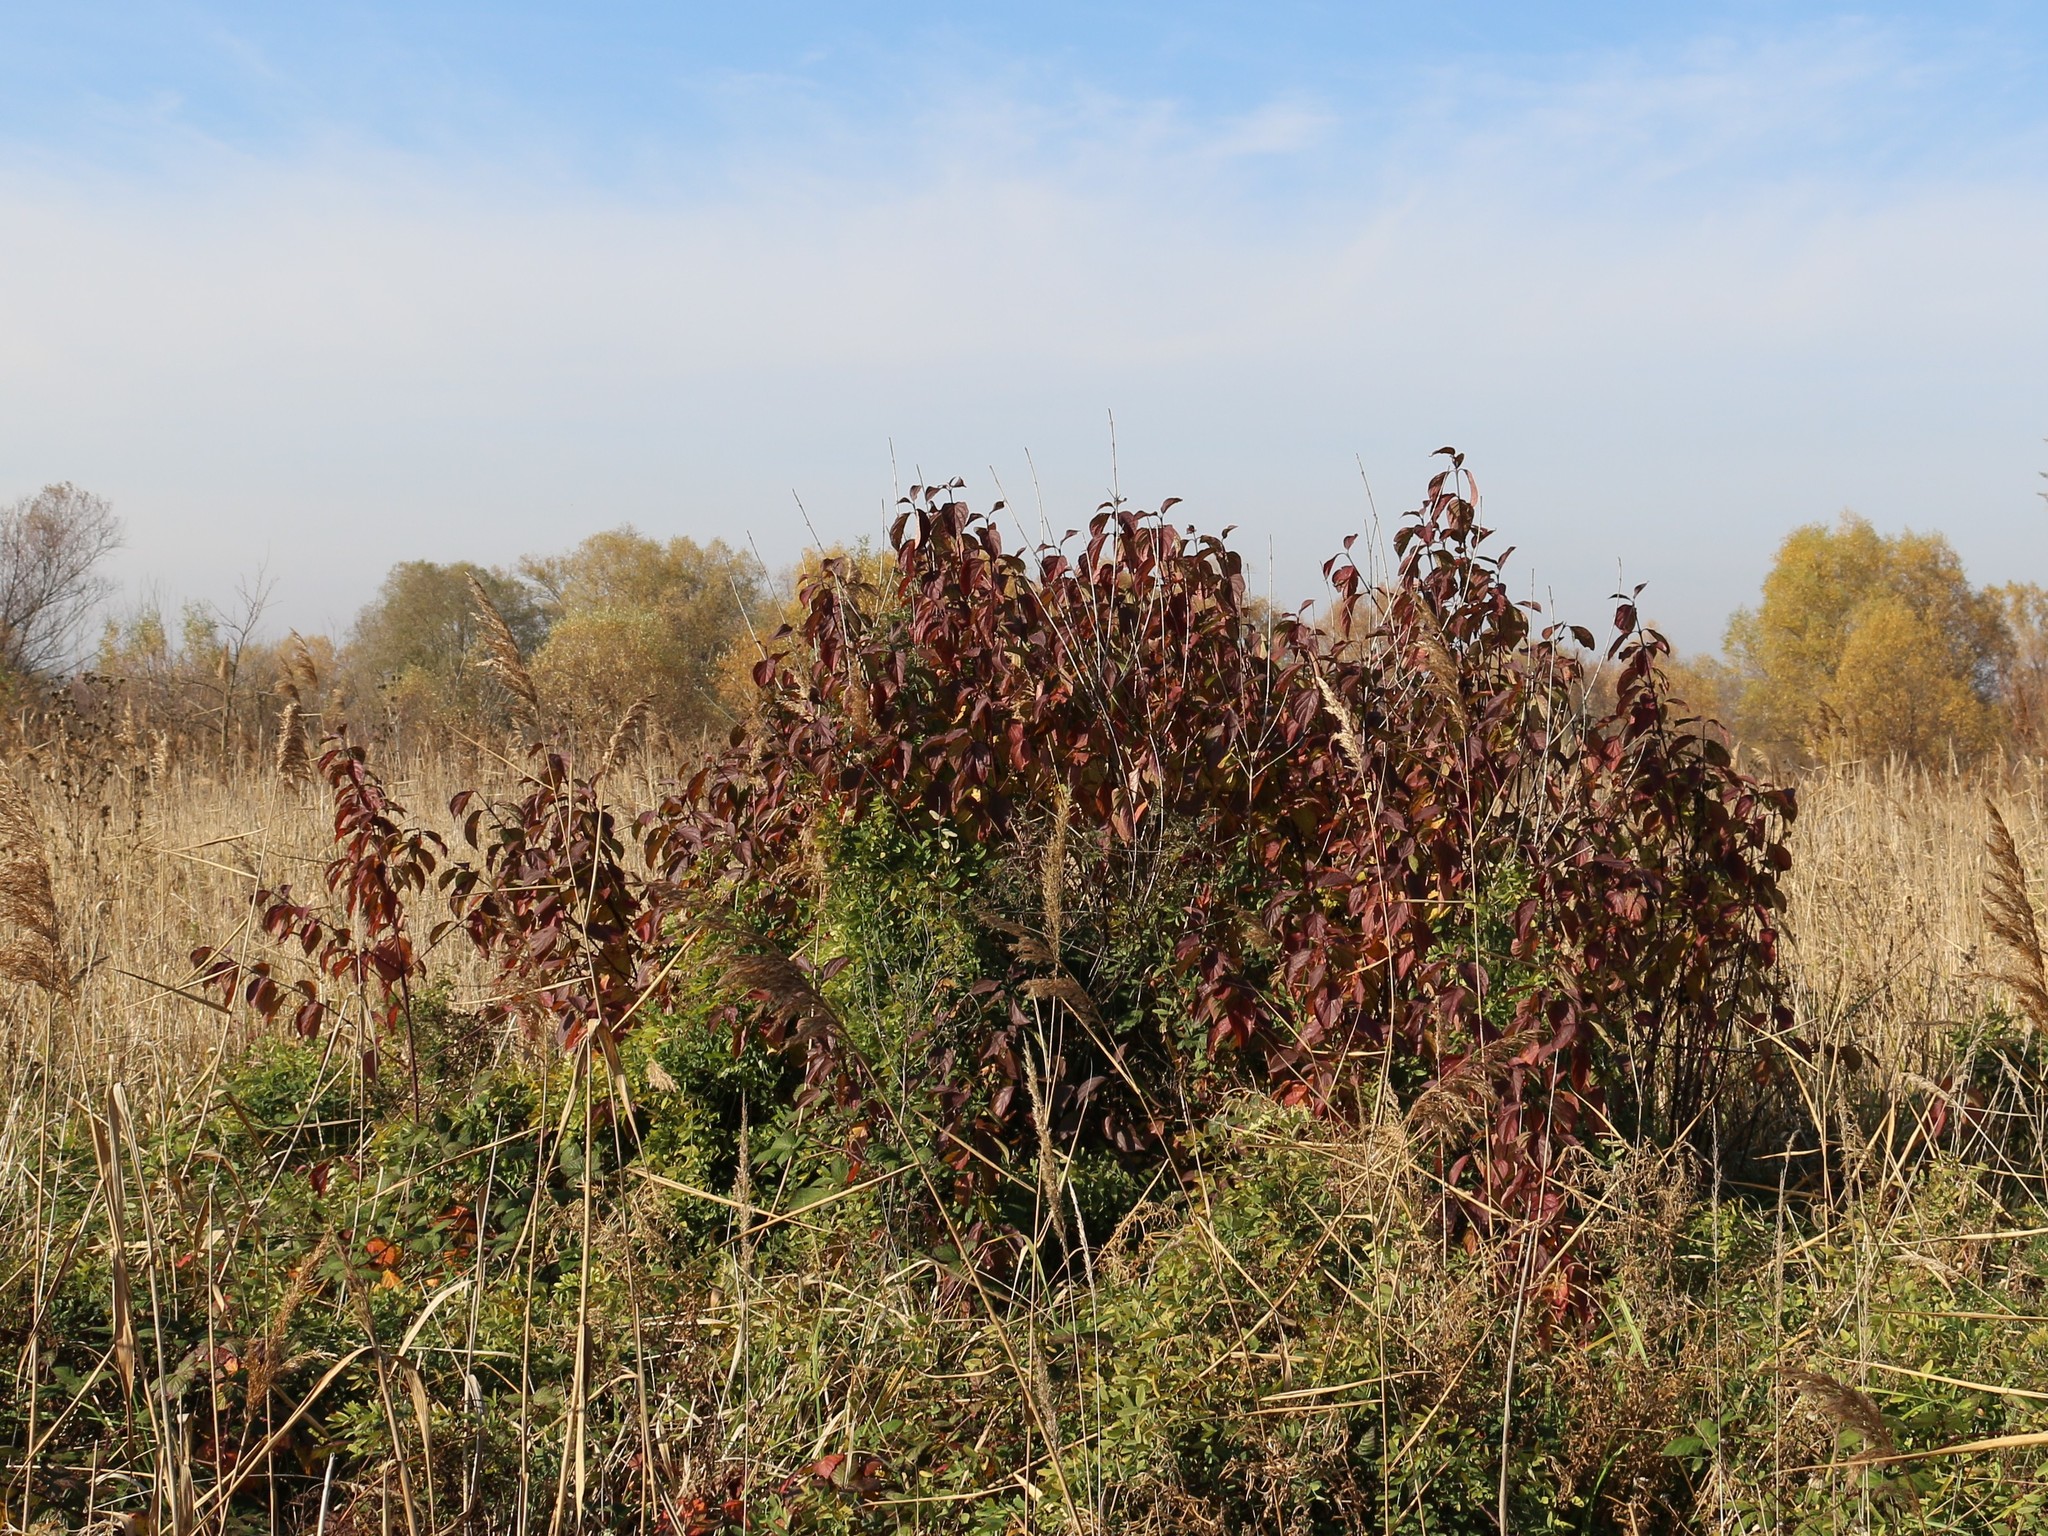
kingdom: Plantae
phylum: Tracheophyta
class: Magnoliopsida
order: Cornales
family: Cornaceae
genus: Cornus
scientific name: Cornus sanguinea
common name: Dogwood
